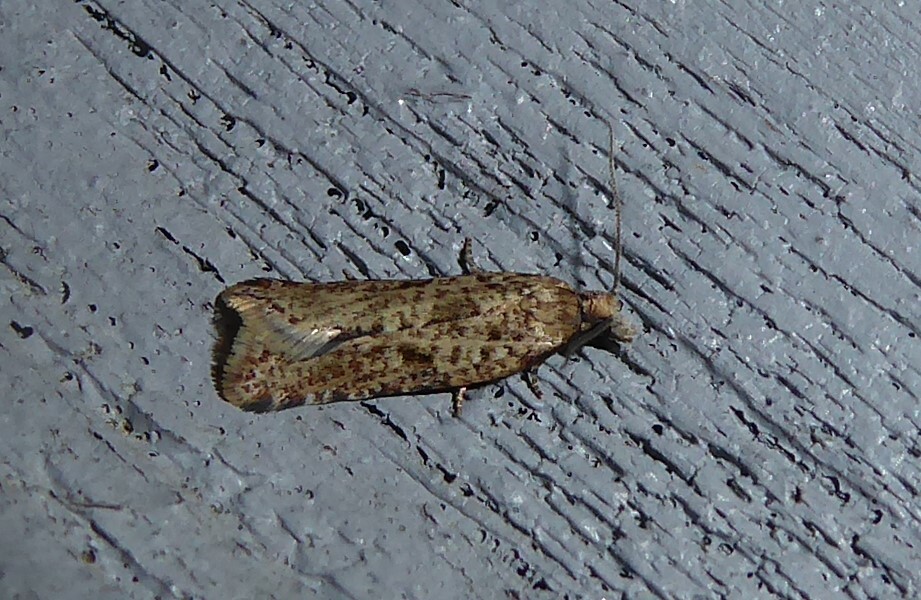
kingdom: Animalia
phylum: Arthropoda
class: Insecta
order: Lepidoptera
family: Tortricidae
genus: Capua
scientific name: Capua semiferana
